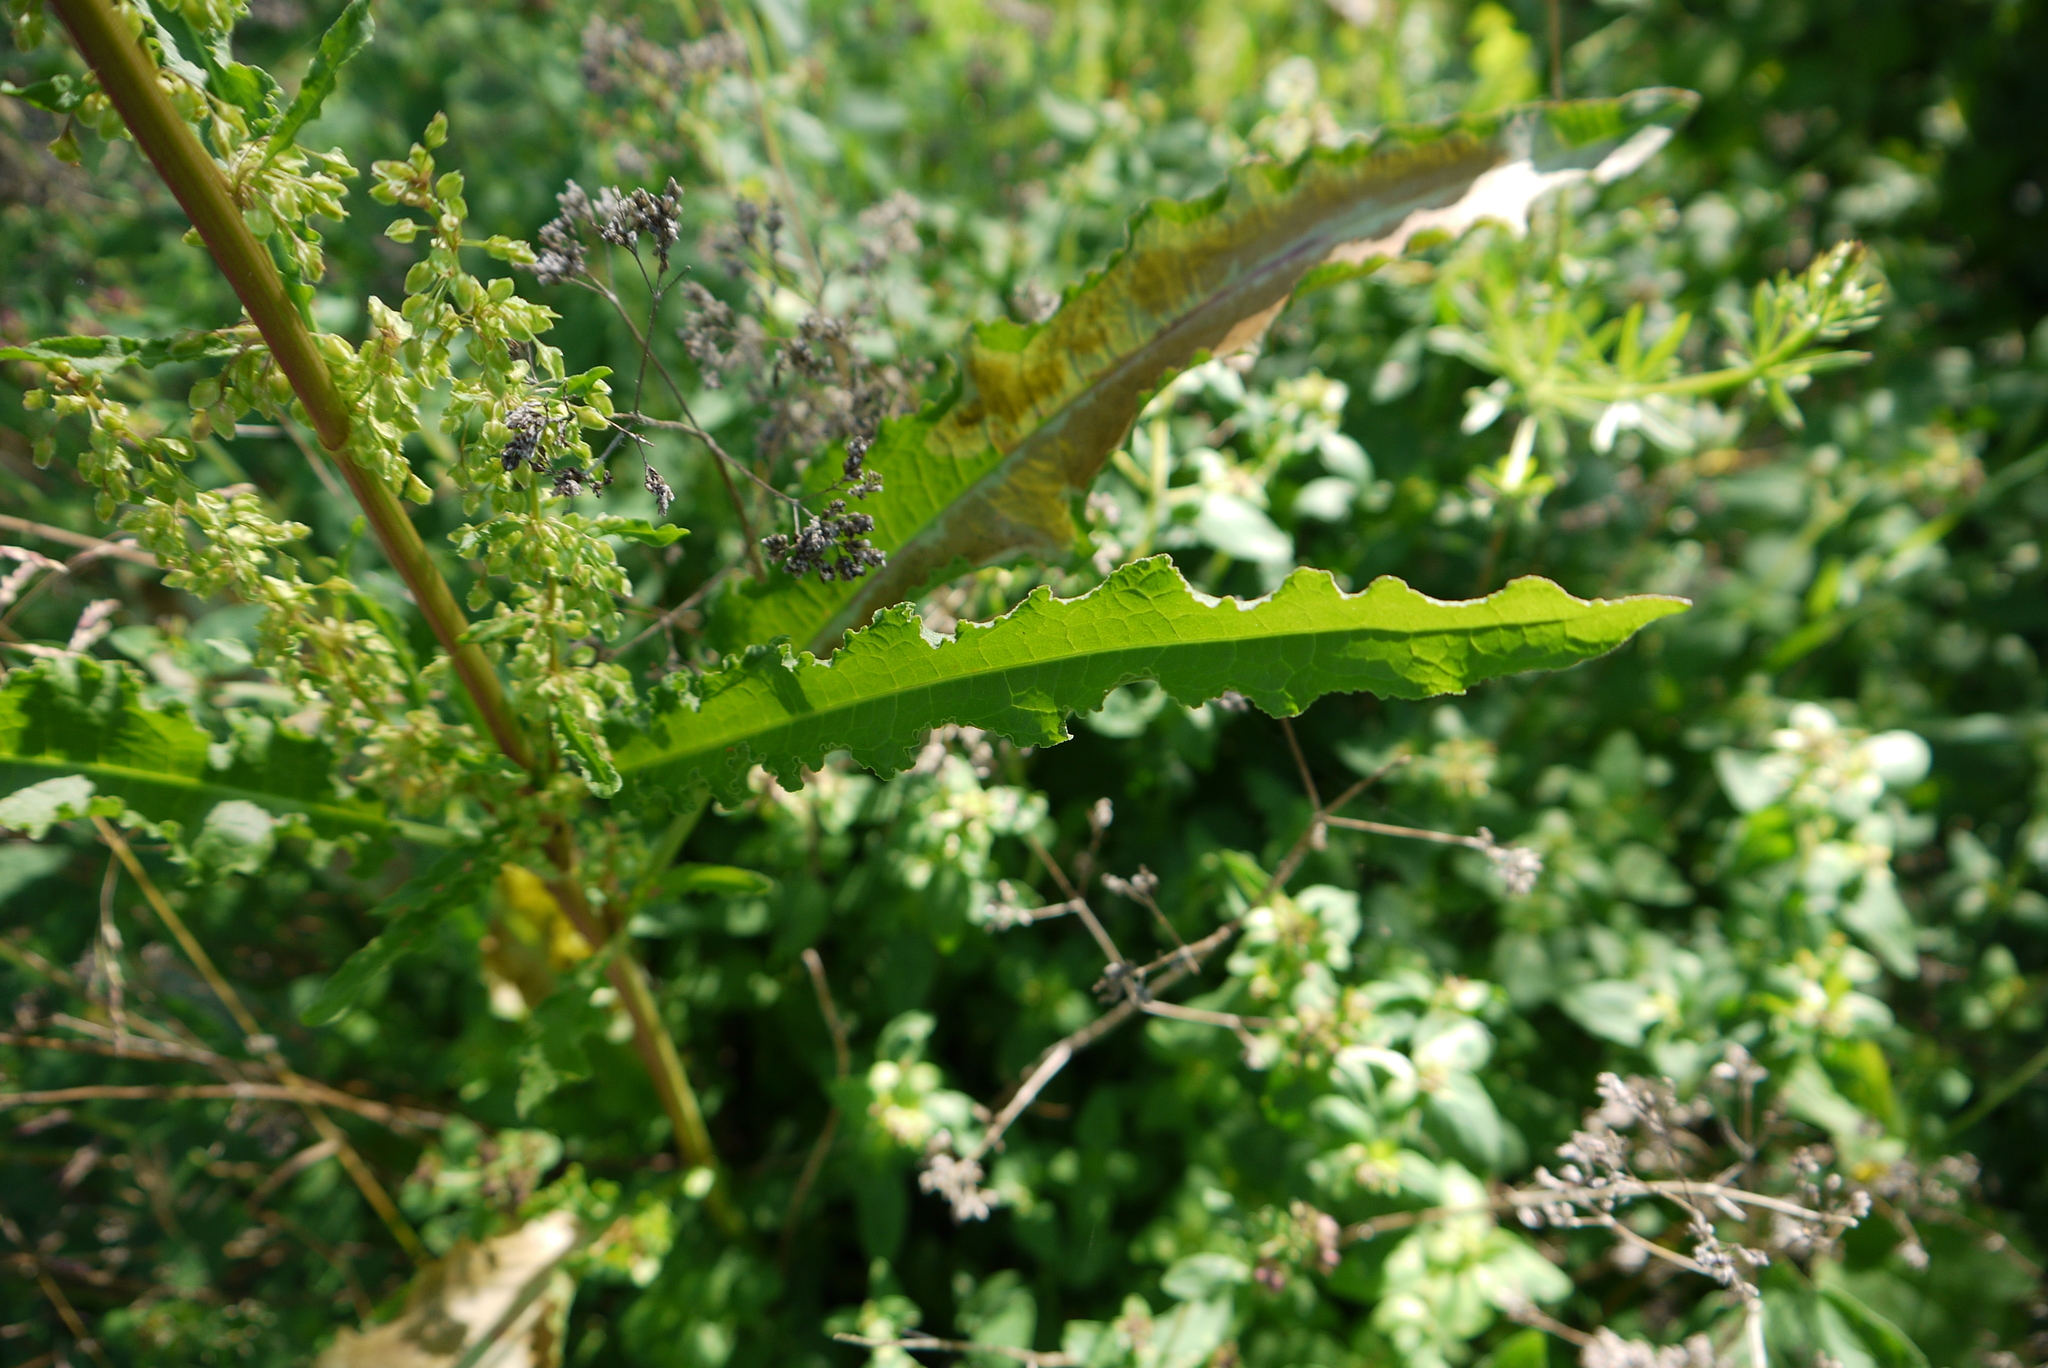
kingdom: Plantae
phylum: Tracheophyta
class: Magnoliopsida
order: Caryophyllales
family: Polygonaceae
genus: Rumex
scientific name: Rumex crispus
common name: Curled dock
